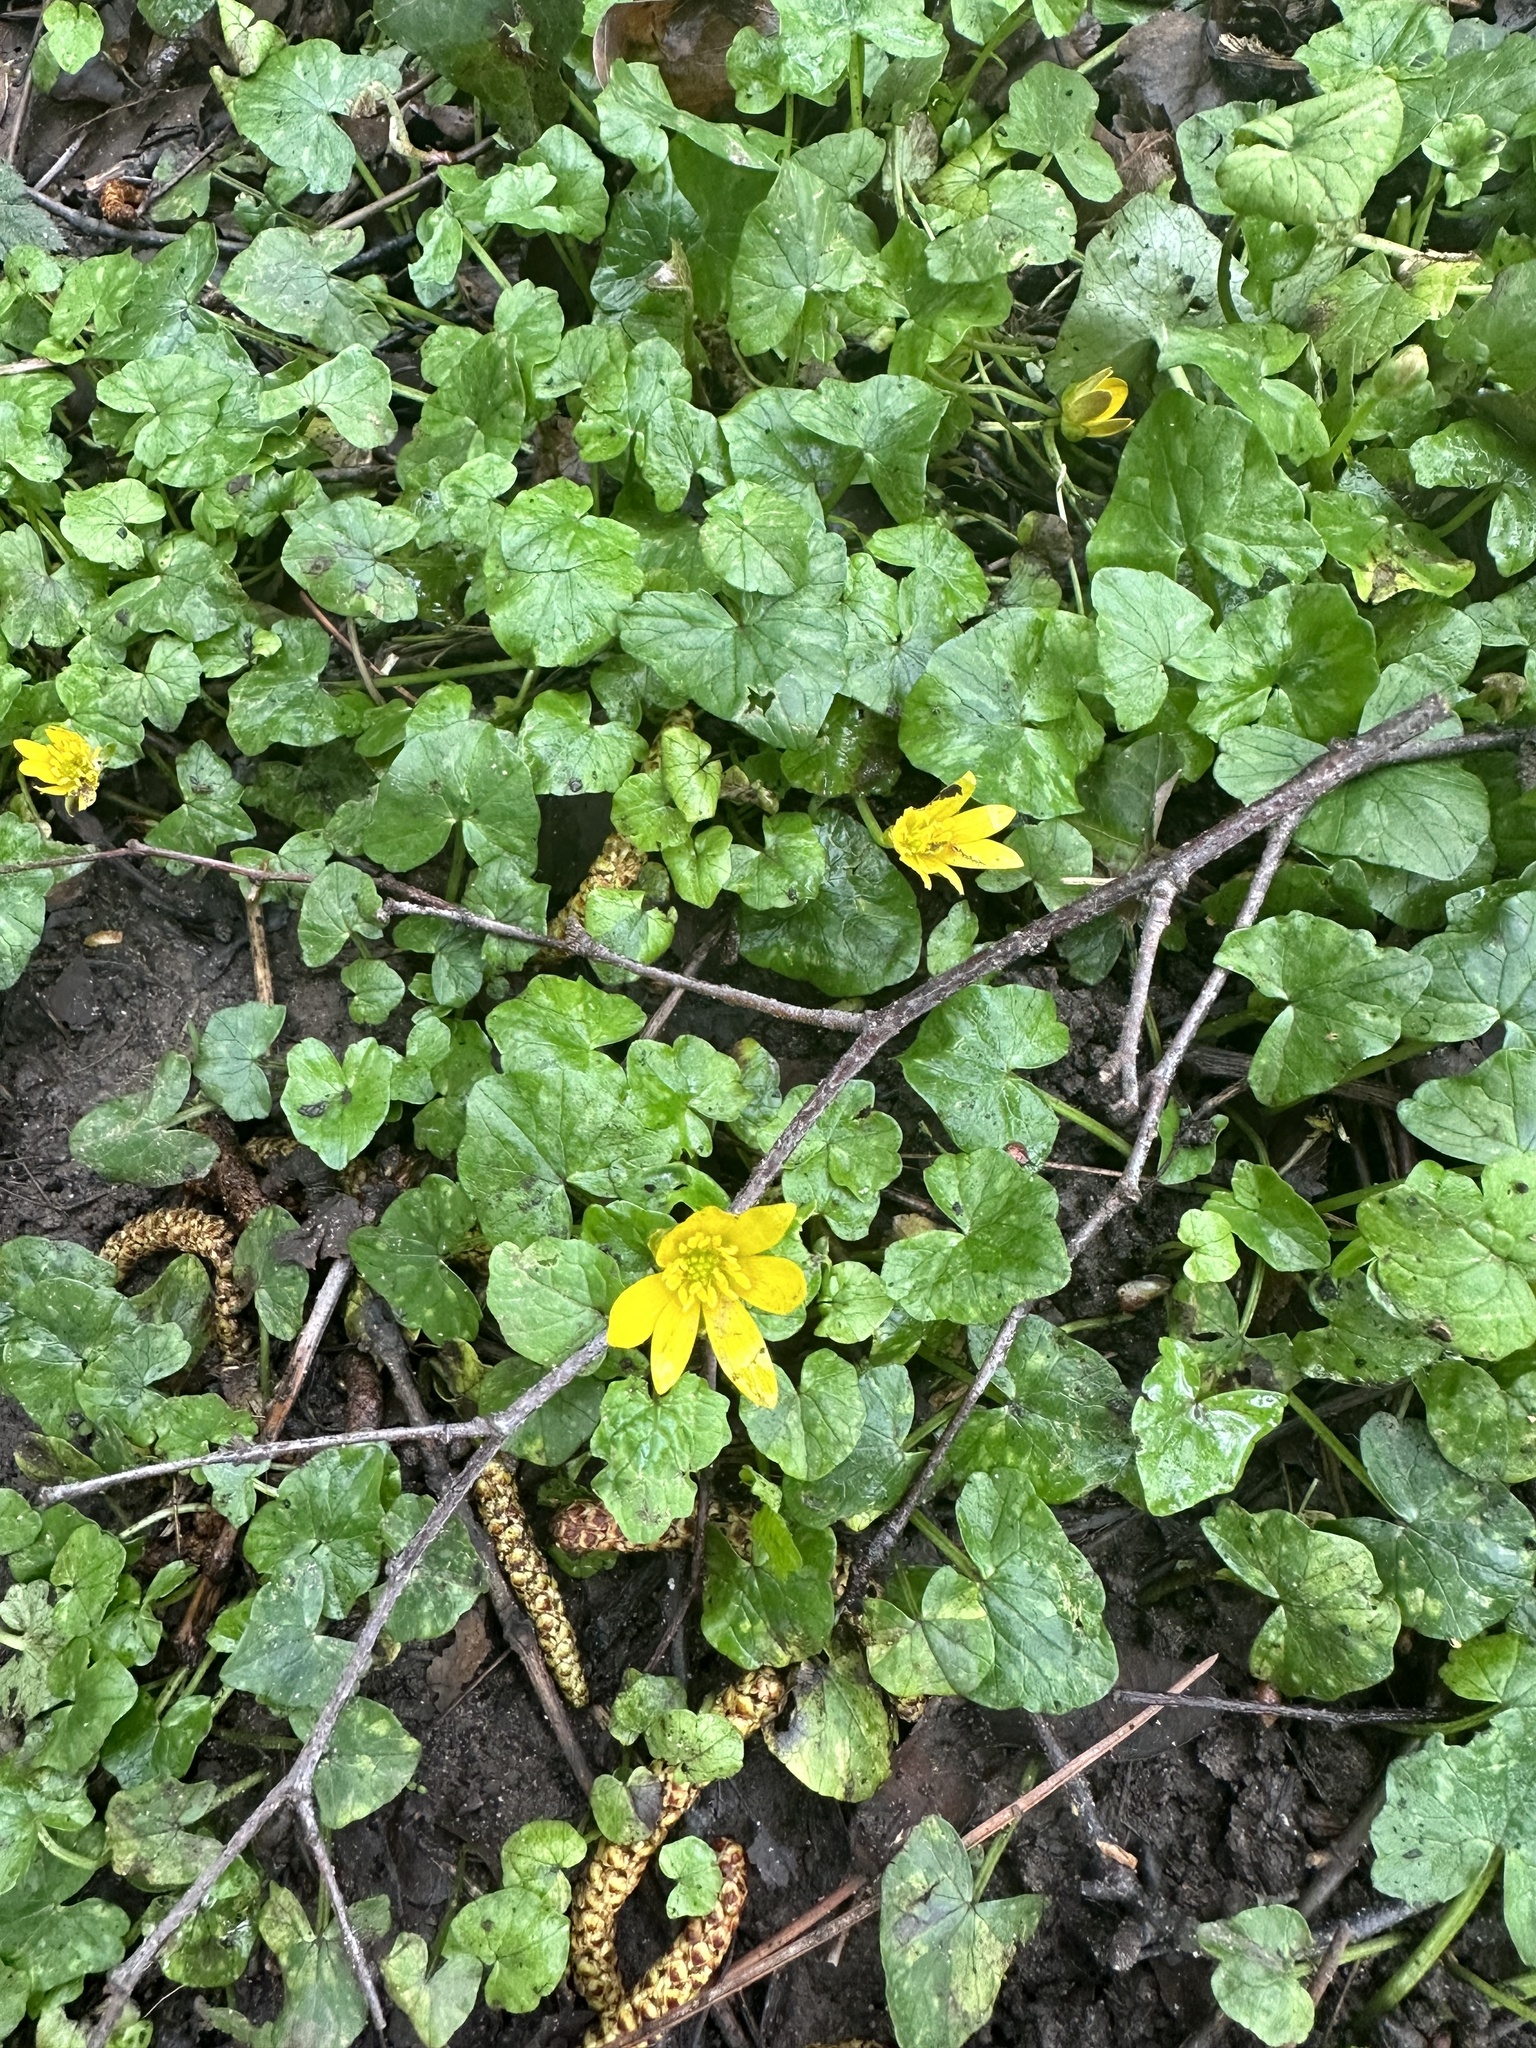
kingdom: Plantae
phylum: Tracheophyta
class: Magnoliopsida
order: Ranunculales
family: Ranunculaceae
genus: Ficaria
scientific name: Ficaria verna
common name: Lesser celandine
